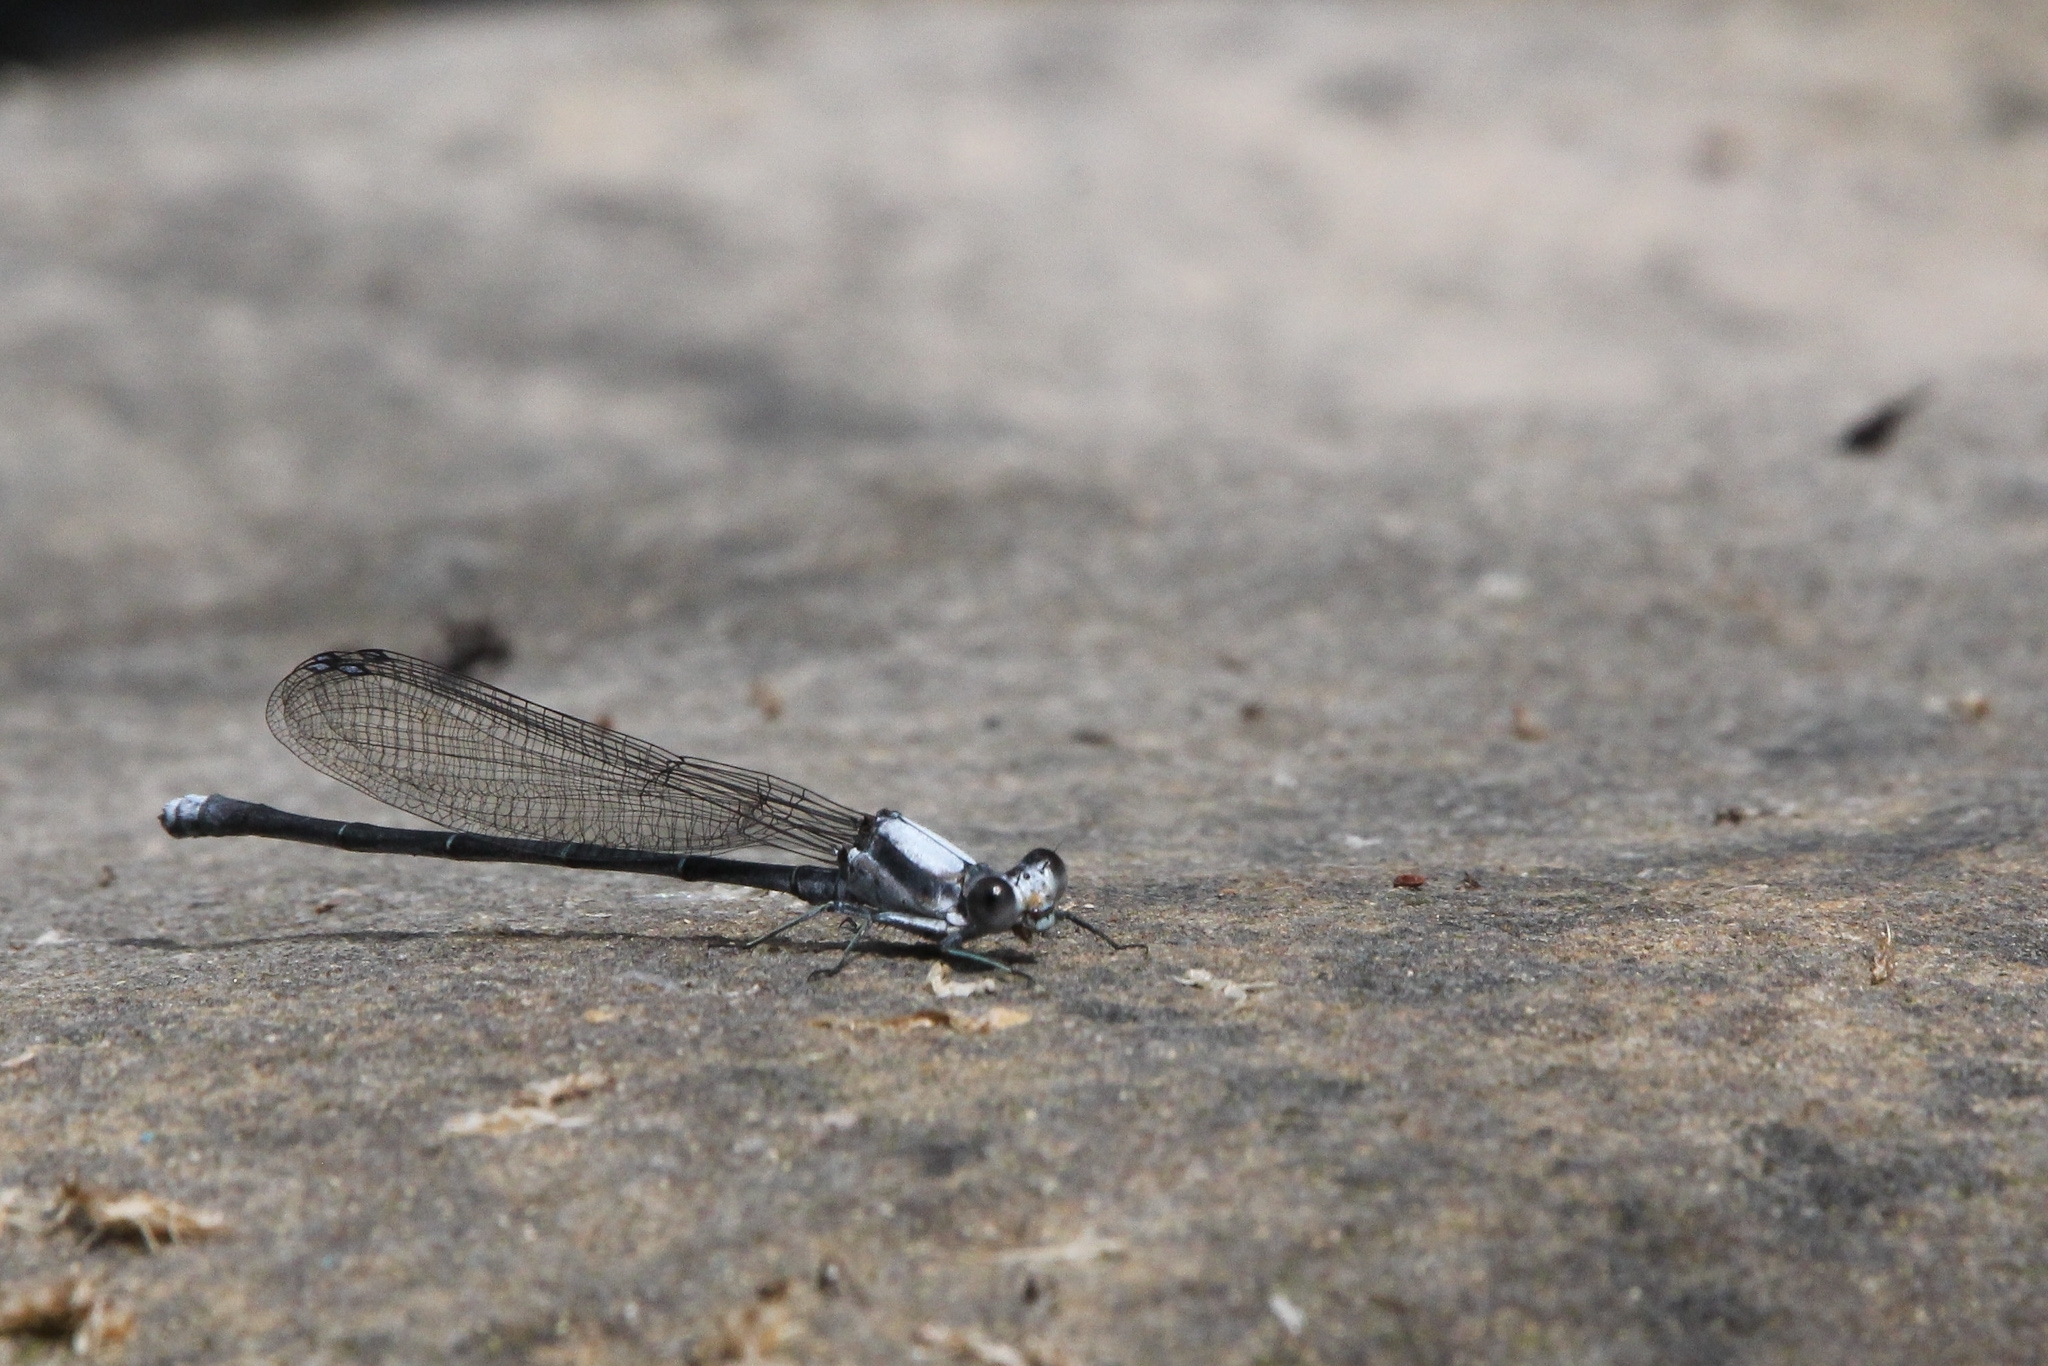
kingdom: Animalia
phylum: Arthropoda
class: Insecta
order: Odonata
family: Coenagrionidae
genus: Argia
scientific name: Argia moesta
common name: Powdered dancer
